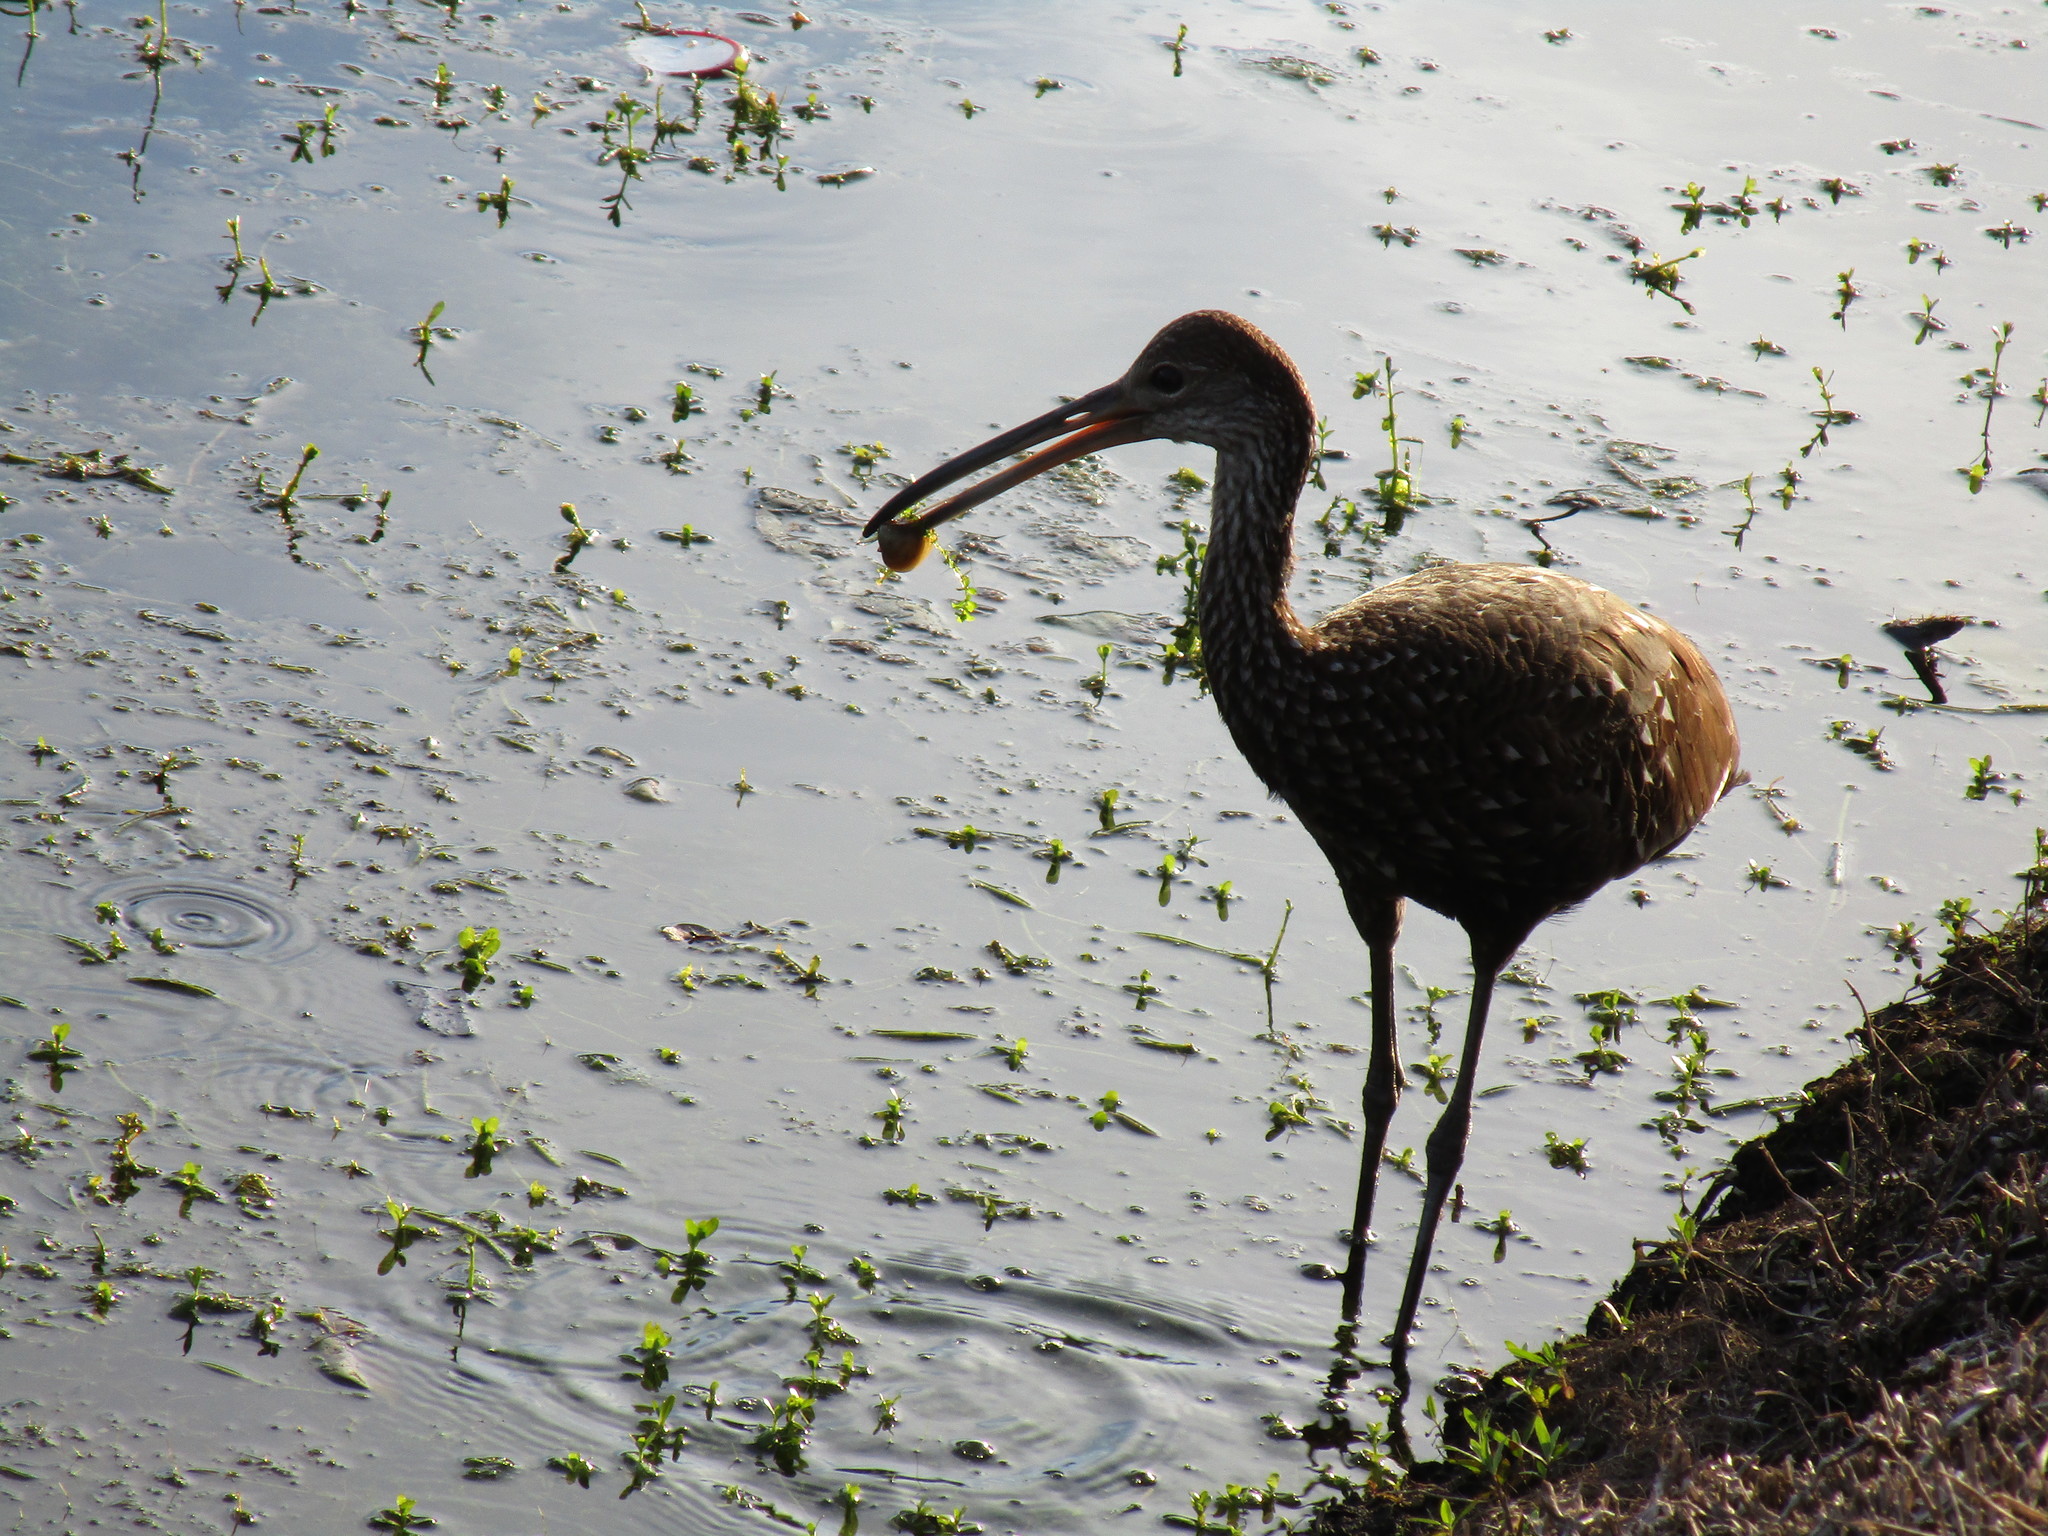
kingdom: Animalia
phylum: Chordata
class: Aves
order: Gruiformes
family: Aramidae
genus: Aramus
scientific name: Aramus guarauna
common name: Limpkin
